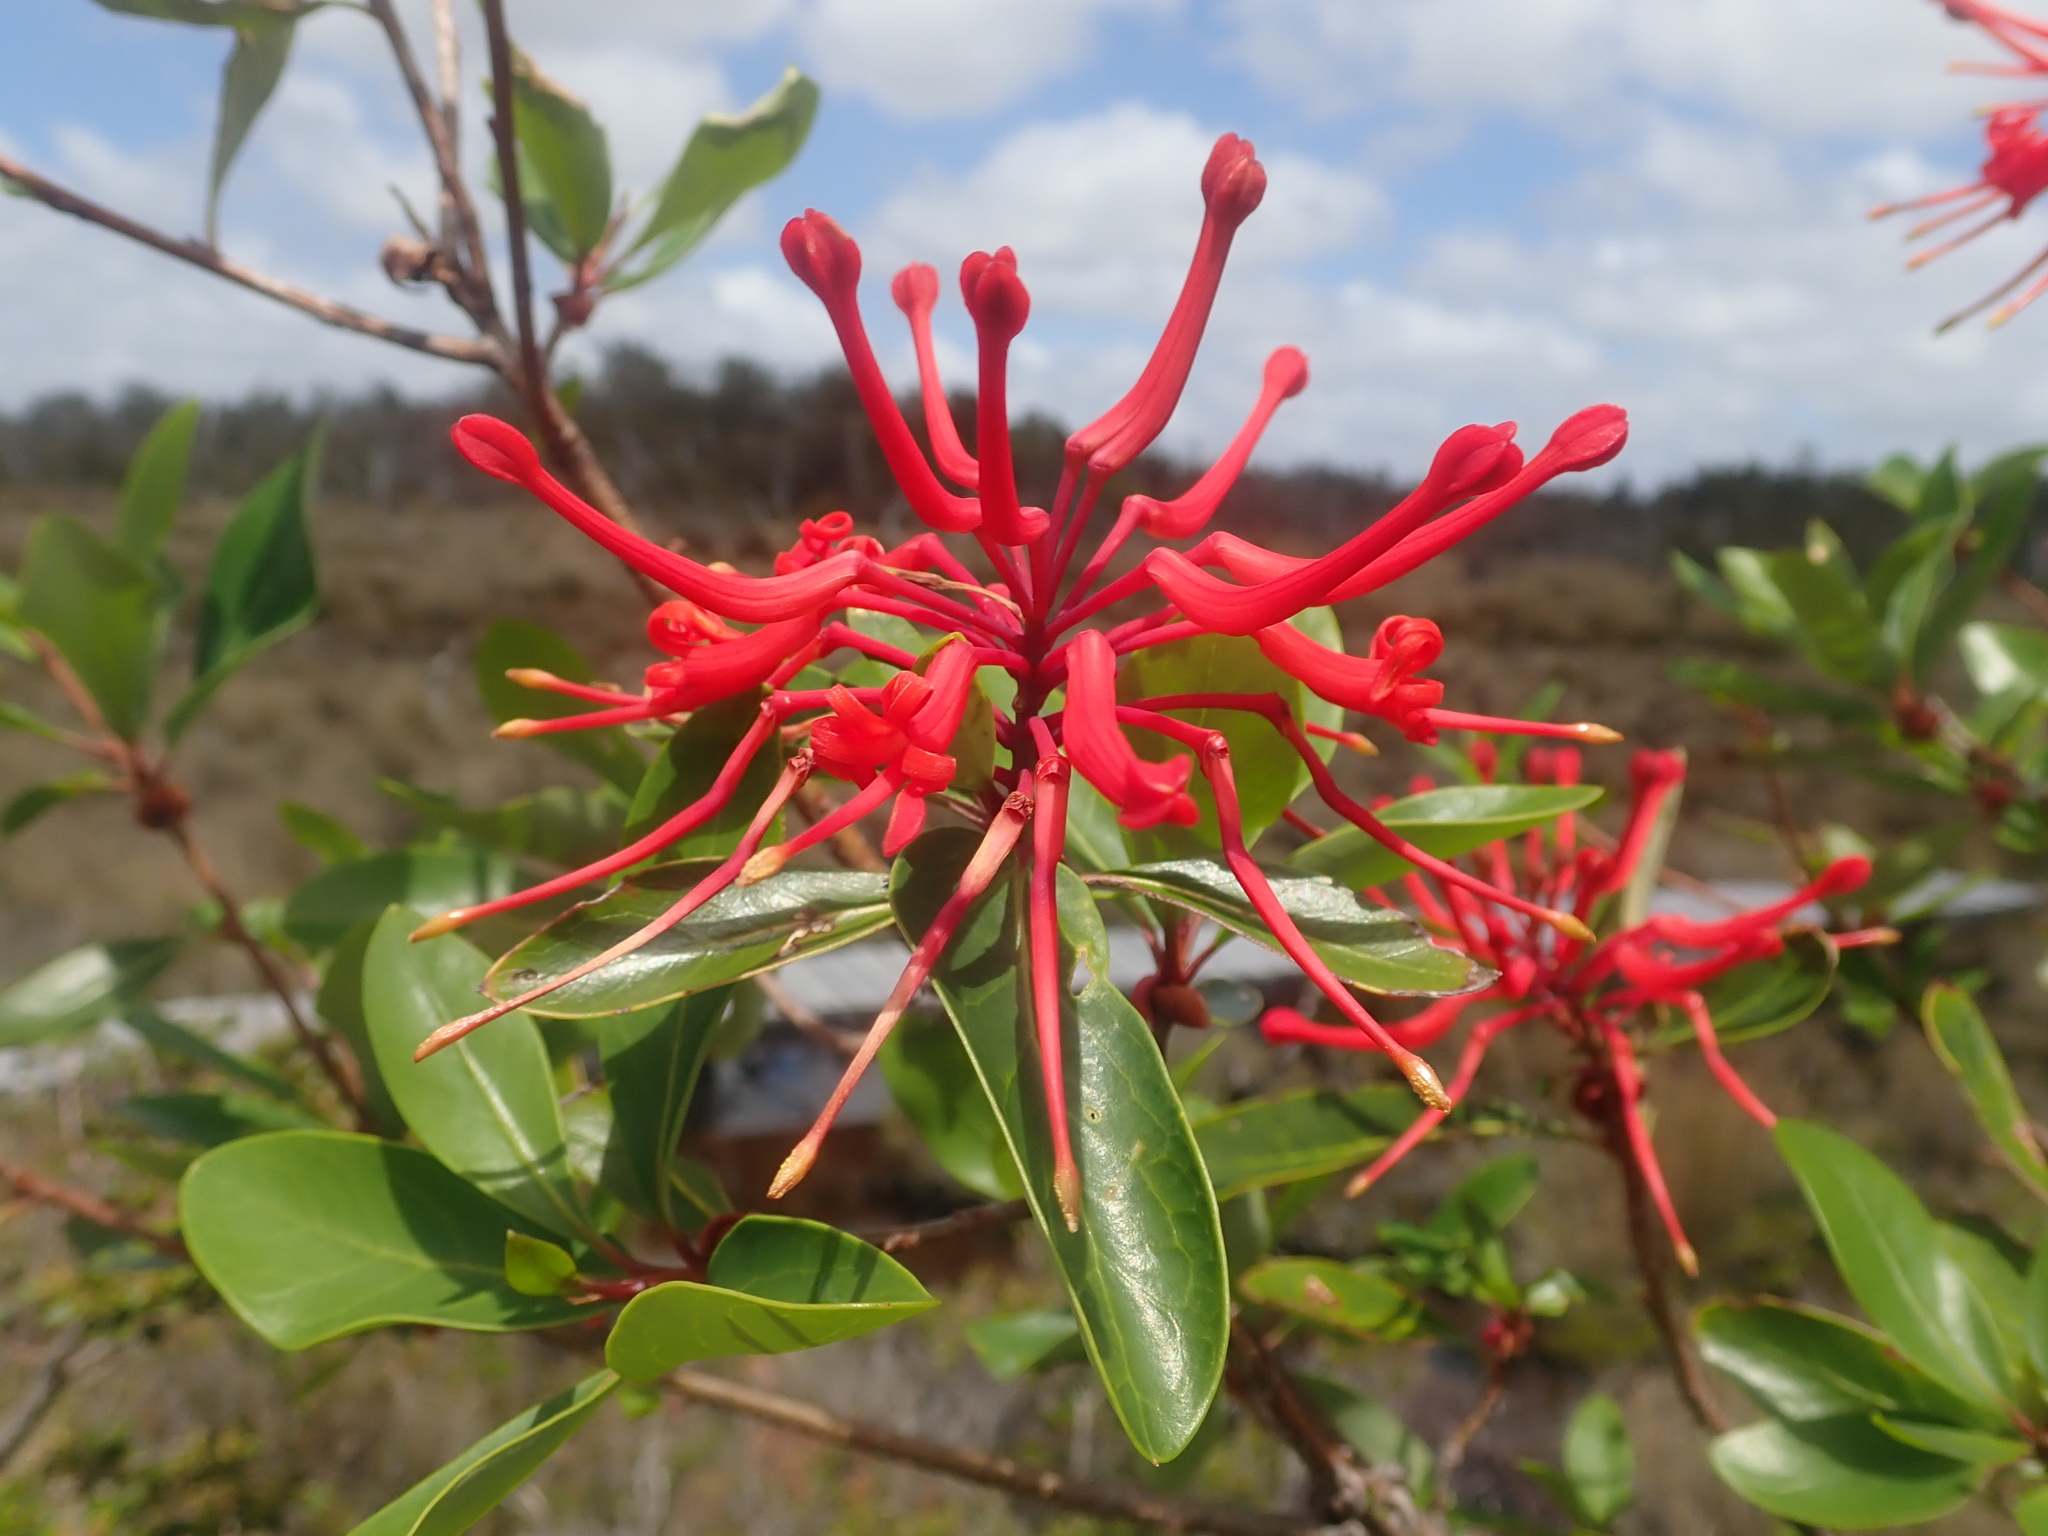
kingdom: Plantae
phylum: Tracheophyta
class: Magnoliopsida
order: Proteales
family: Proteaceae
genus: Embothrium
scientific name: Embothrium coccineum
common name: Chilean firebush
